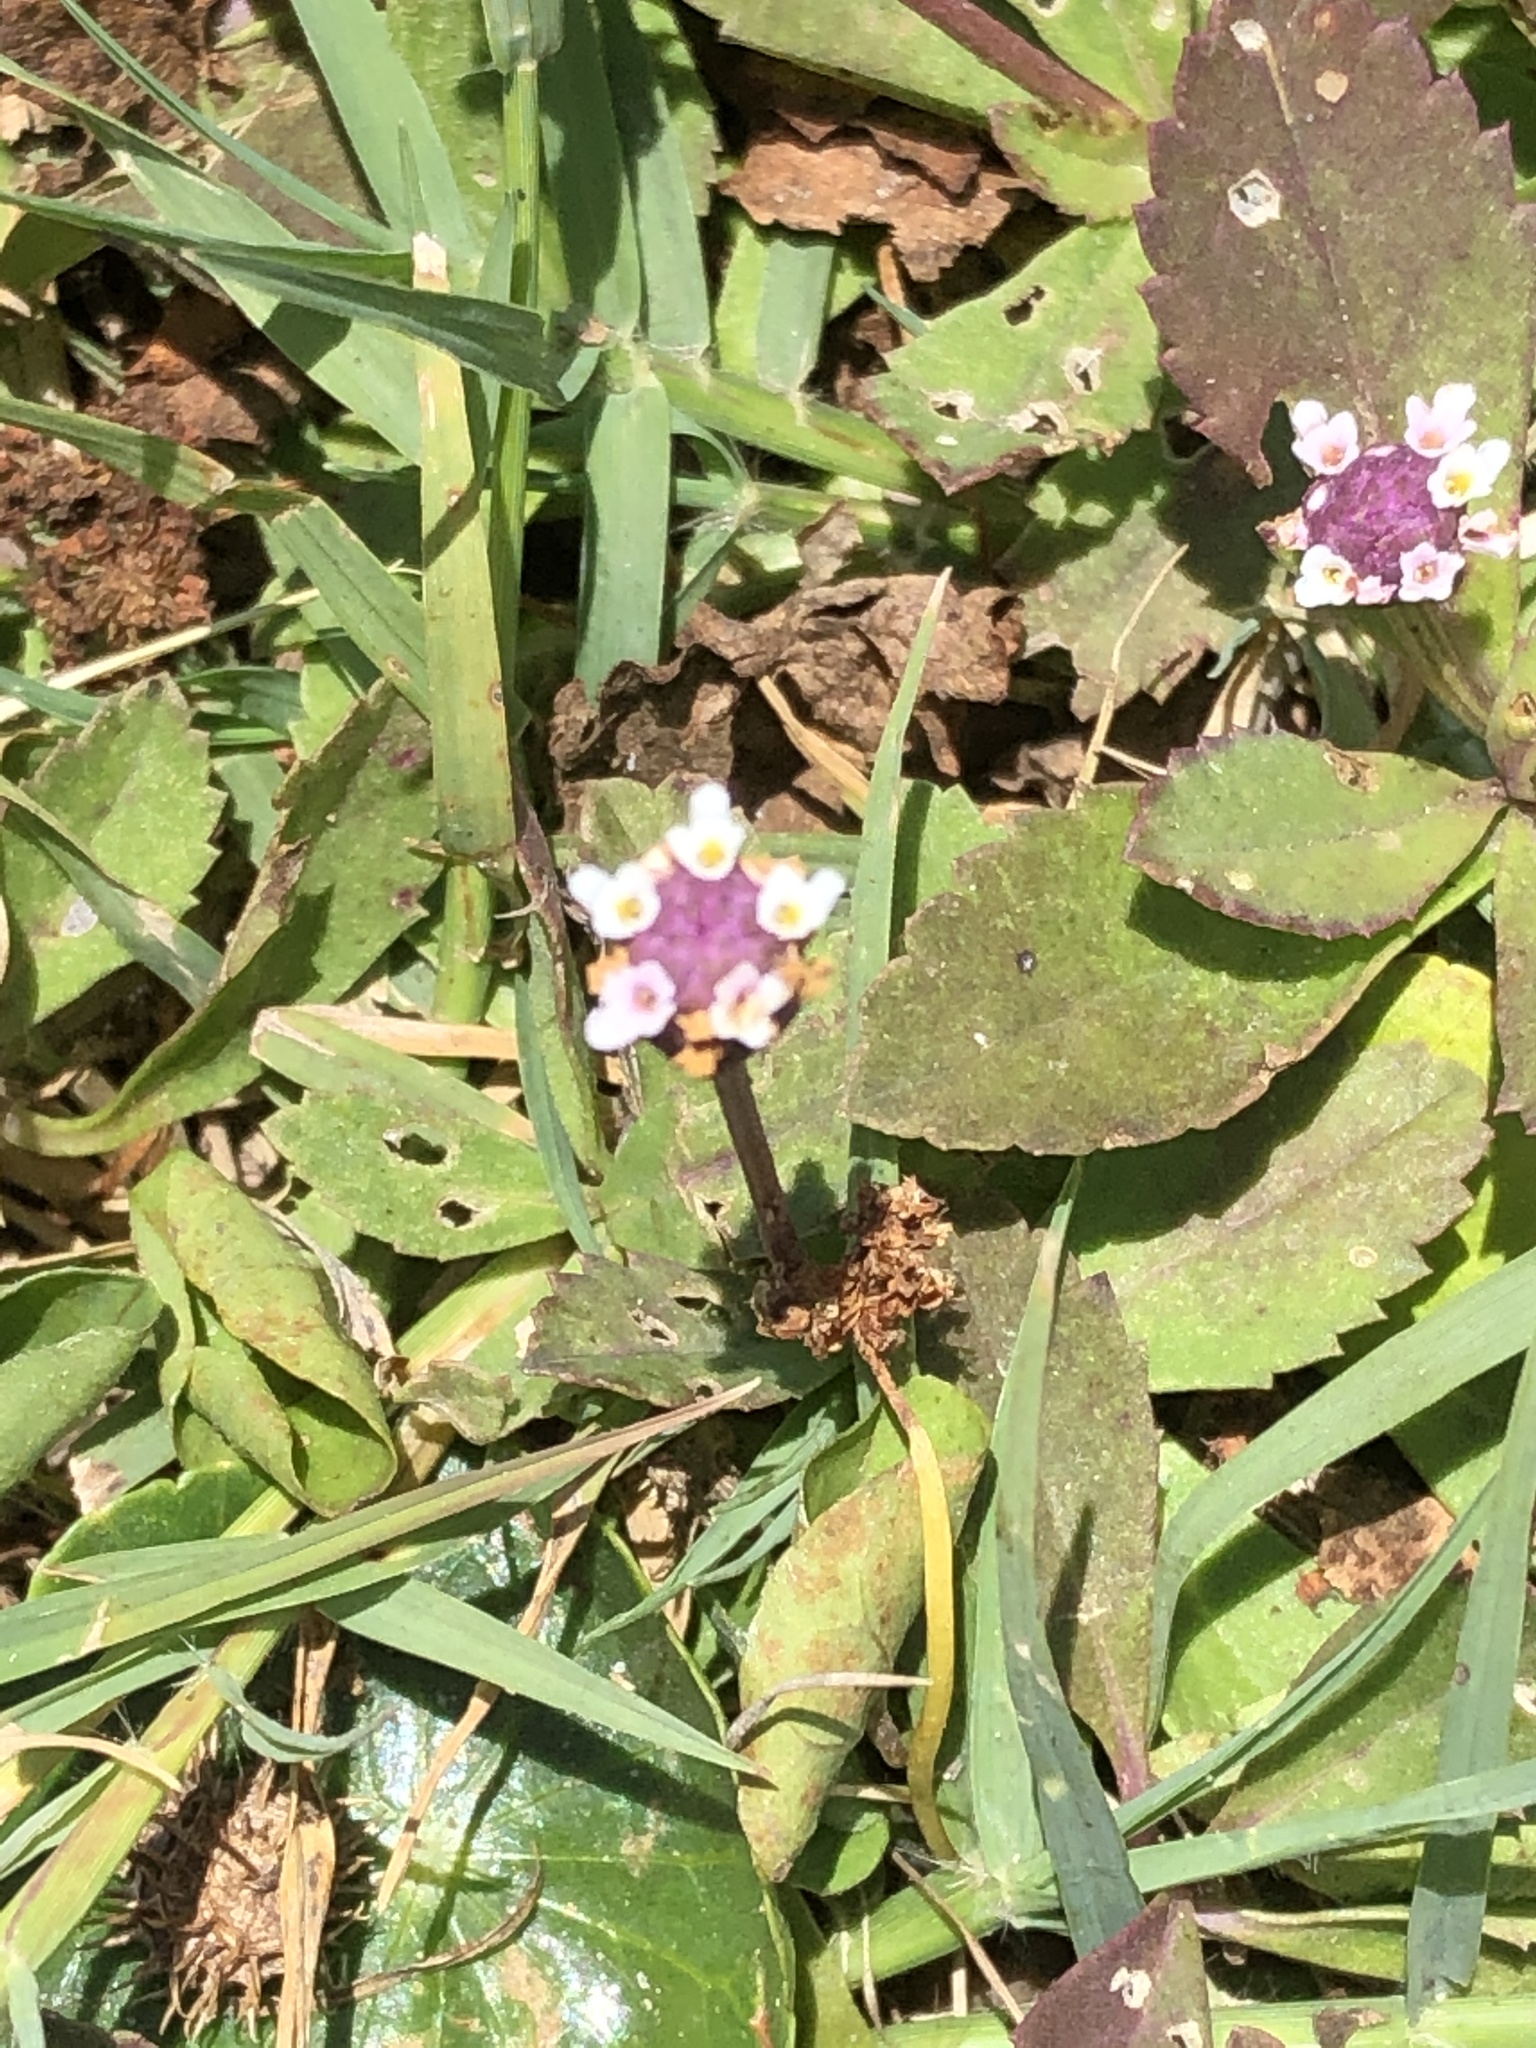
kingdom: Plantae
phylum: Tracheophyta
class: Magnoliopsida
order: Lamiales
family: Verbenaceae
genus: Phyla
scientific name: Phyla nodiflora
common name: Frogfruit
